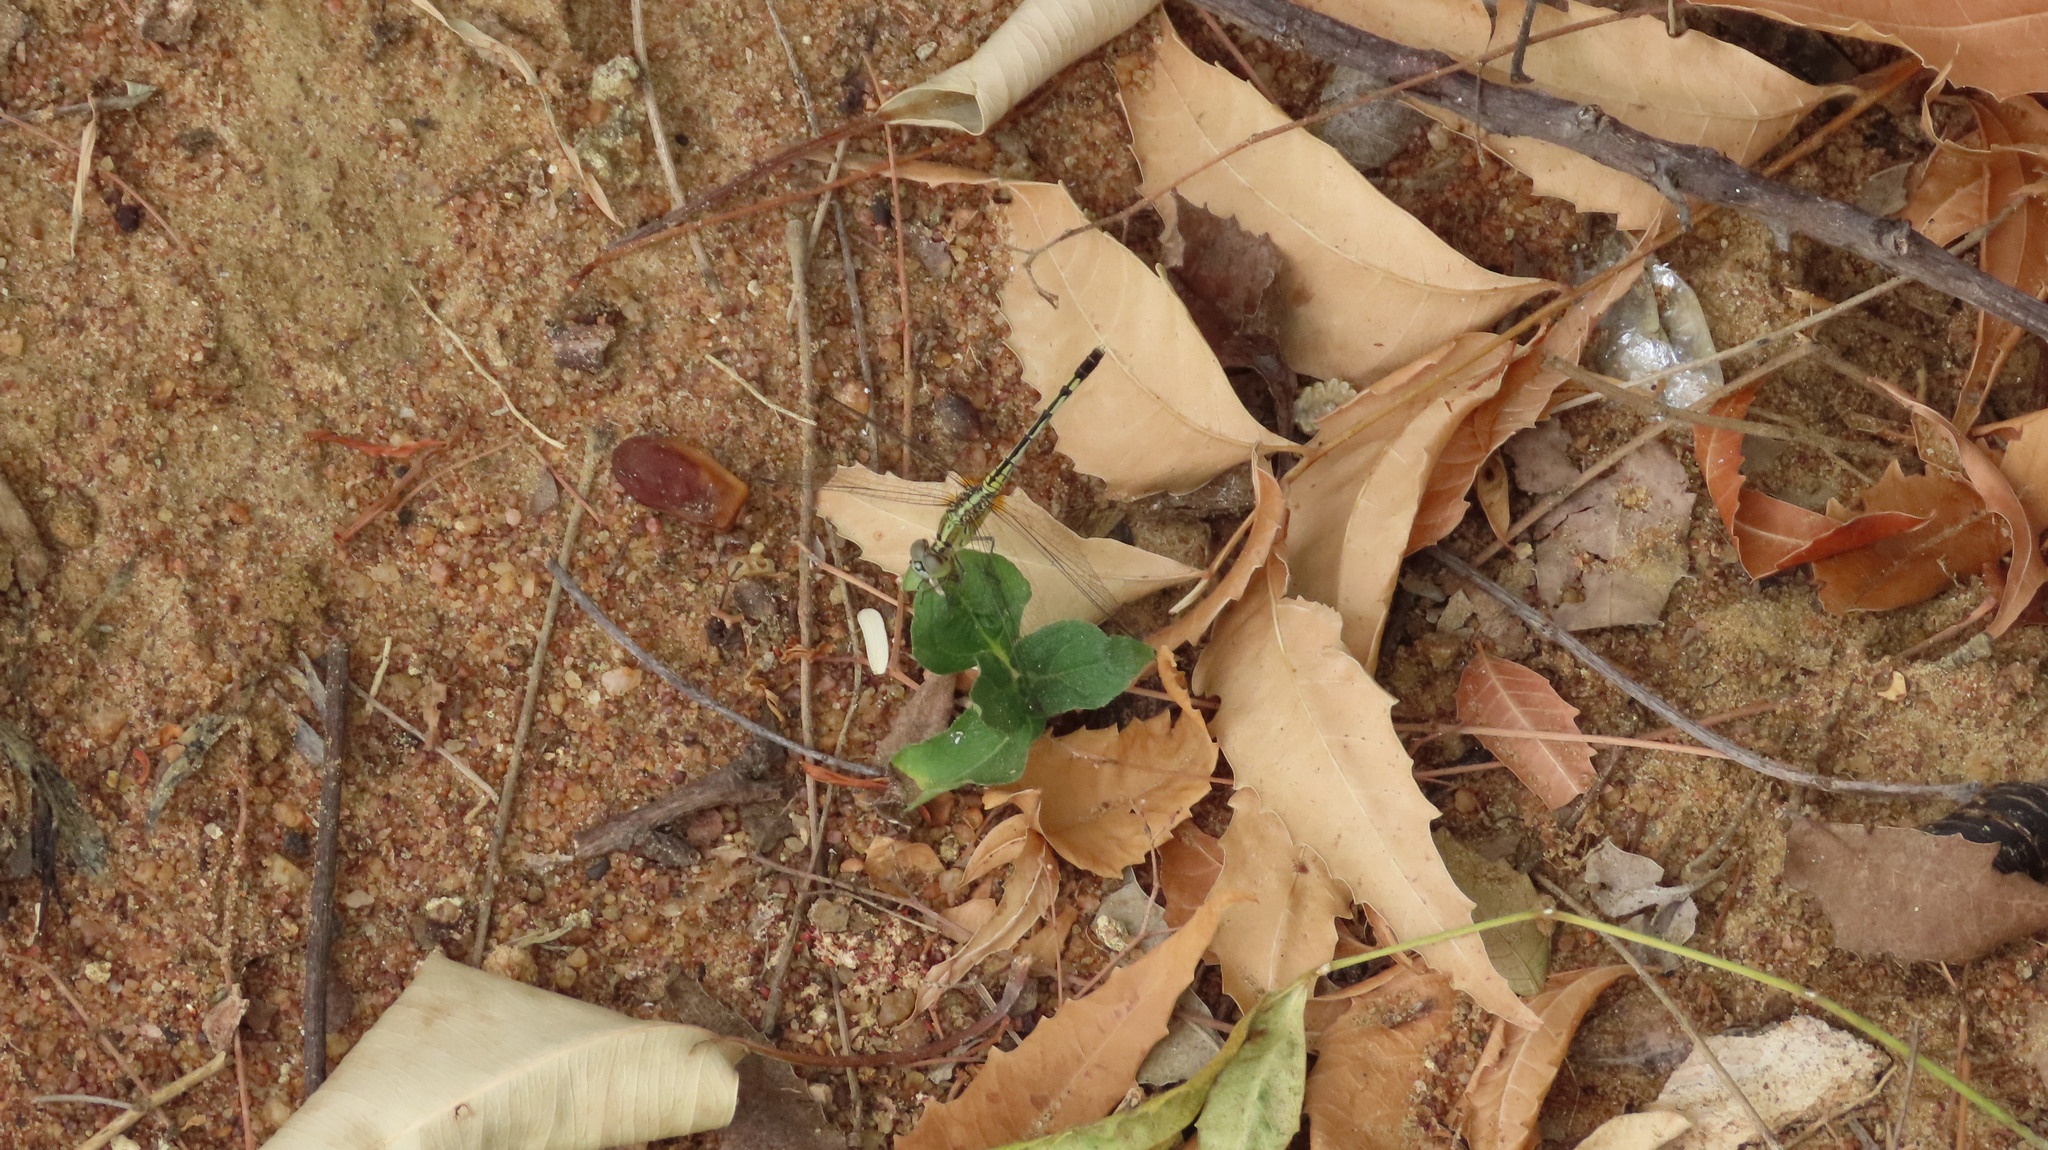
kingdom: Animalia
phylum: Arthropoda
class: Insecta
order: Odonata
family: Libellulidae
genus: Diplacodes
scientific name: Diplacodes trivialis
